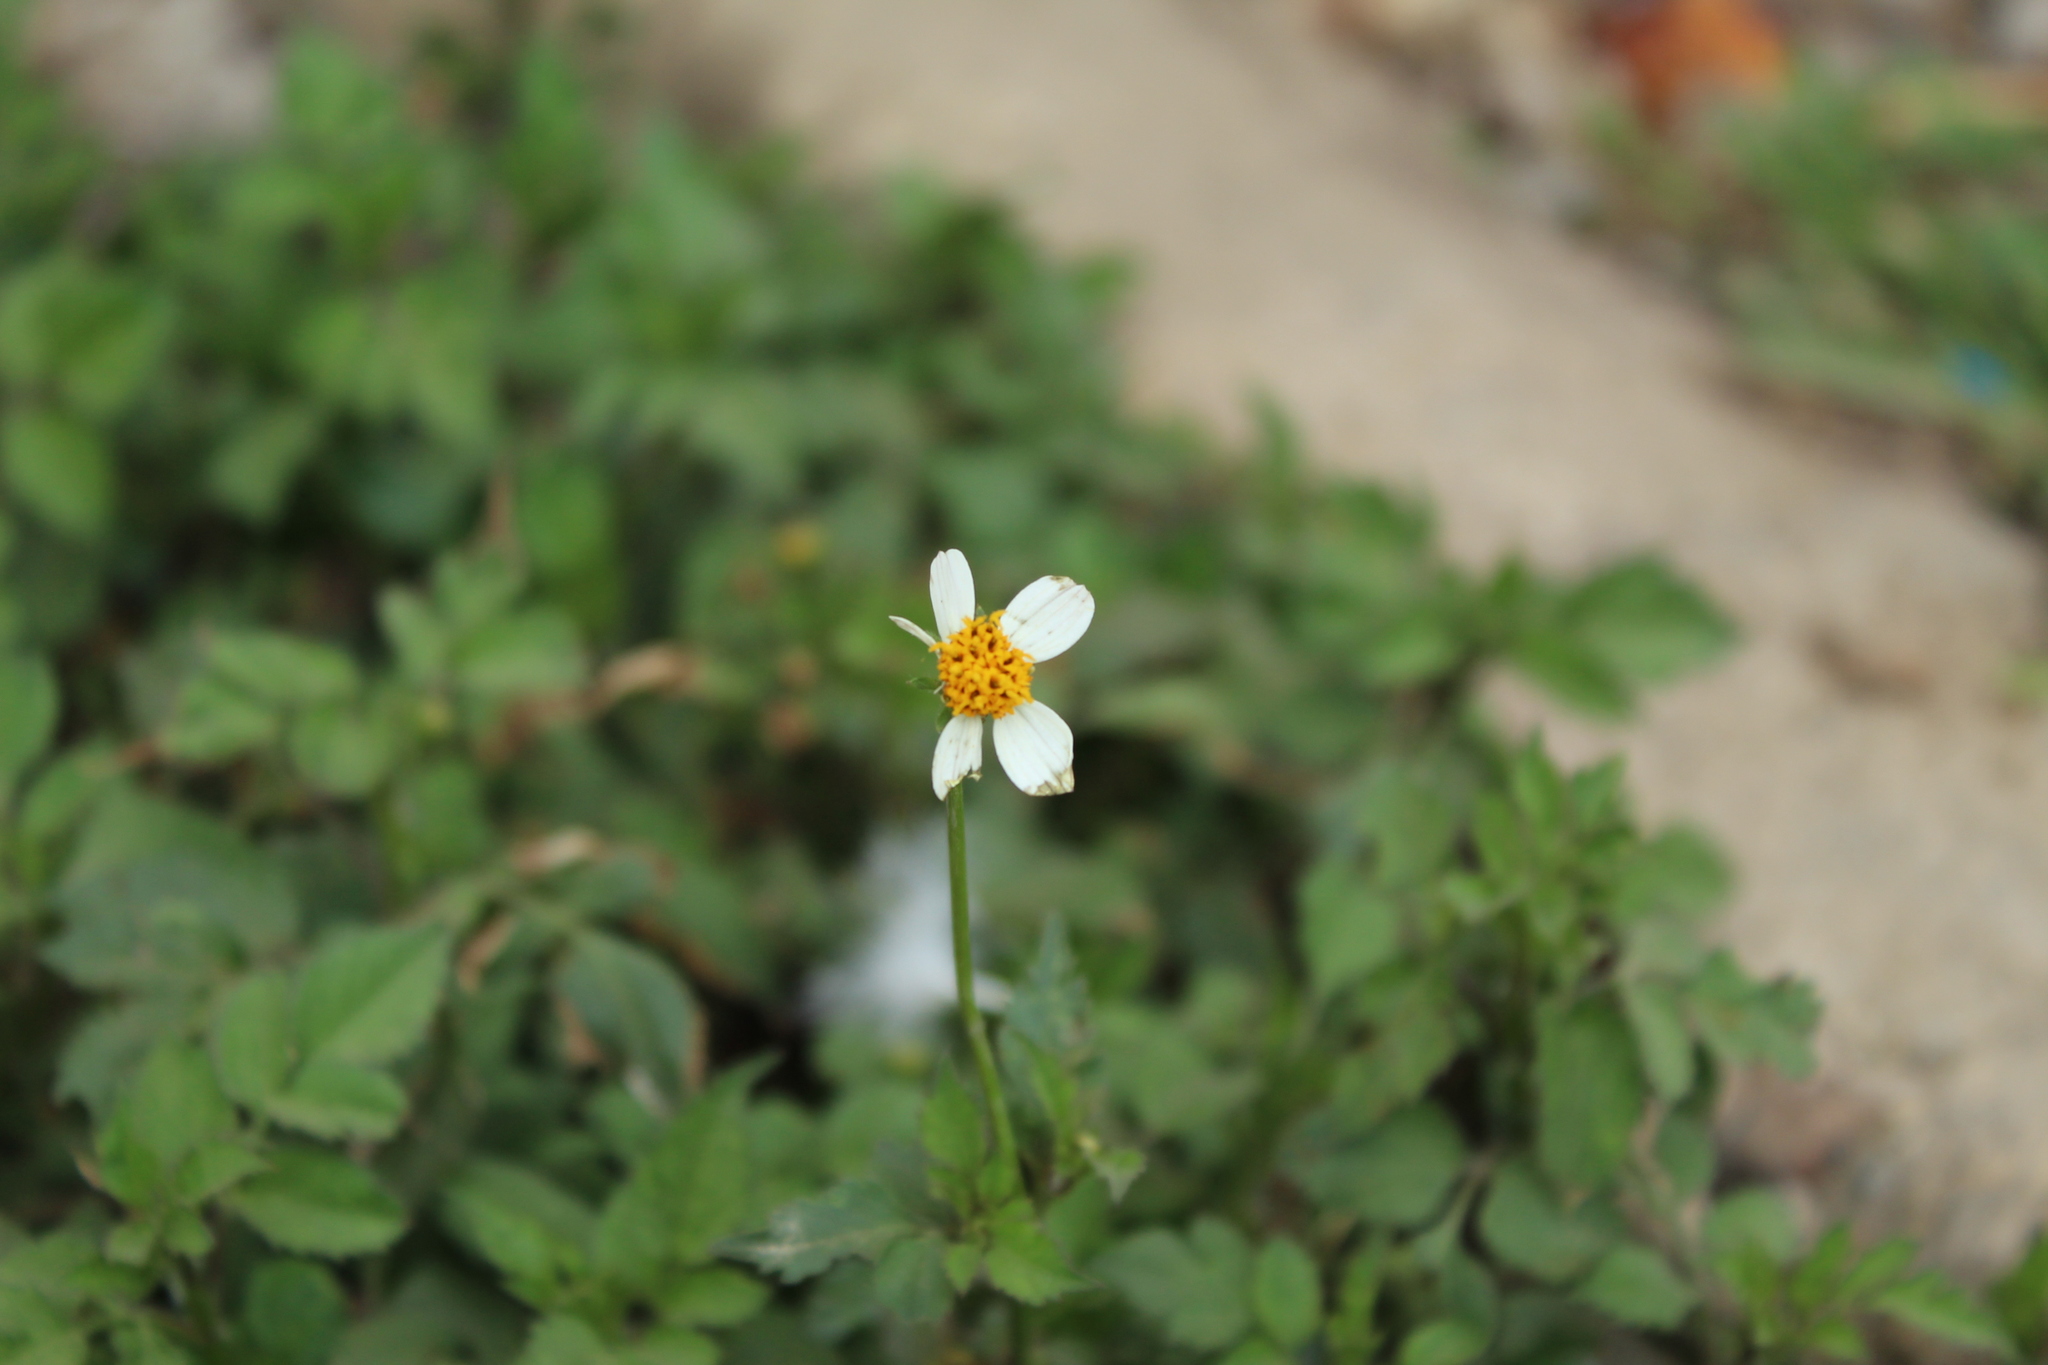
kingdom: Plantae
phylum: Tracheophyta
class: Magnoliopsida
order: Asterales
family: Asteraceae
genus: Bidens
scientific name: Bidens alba
